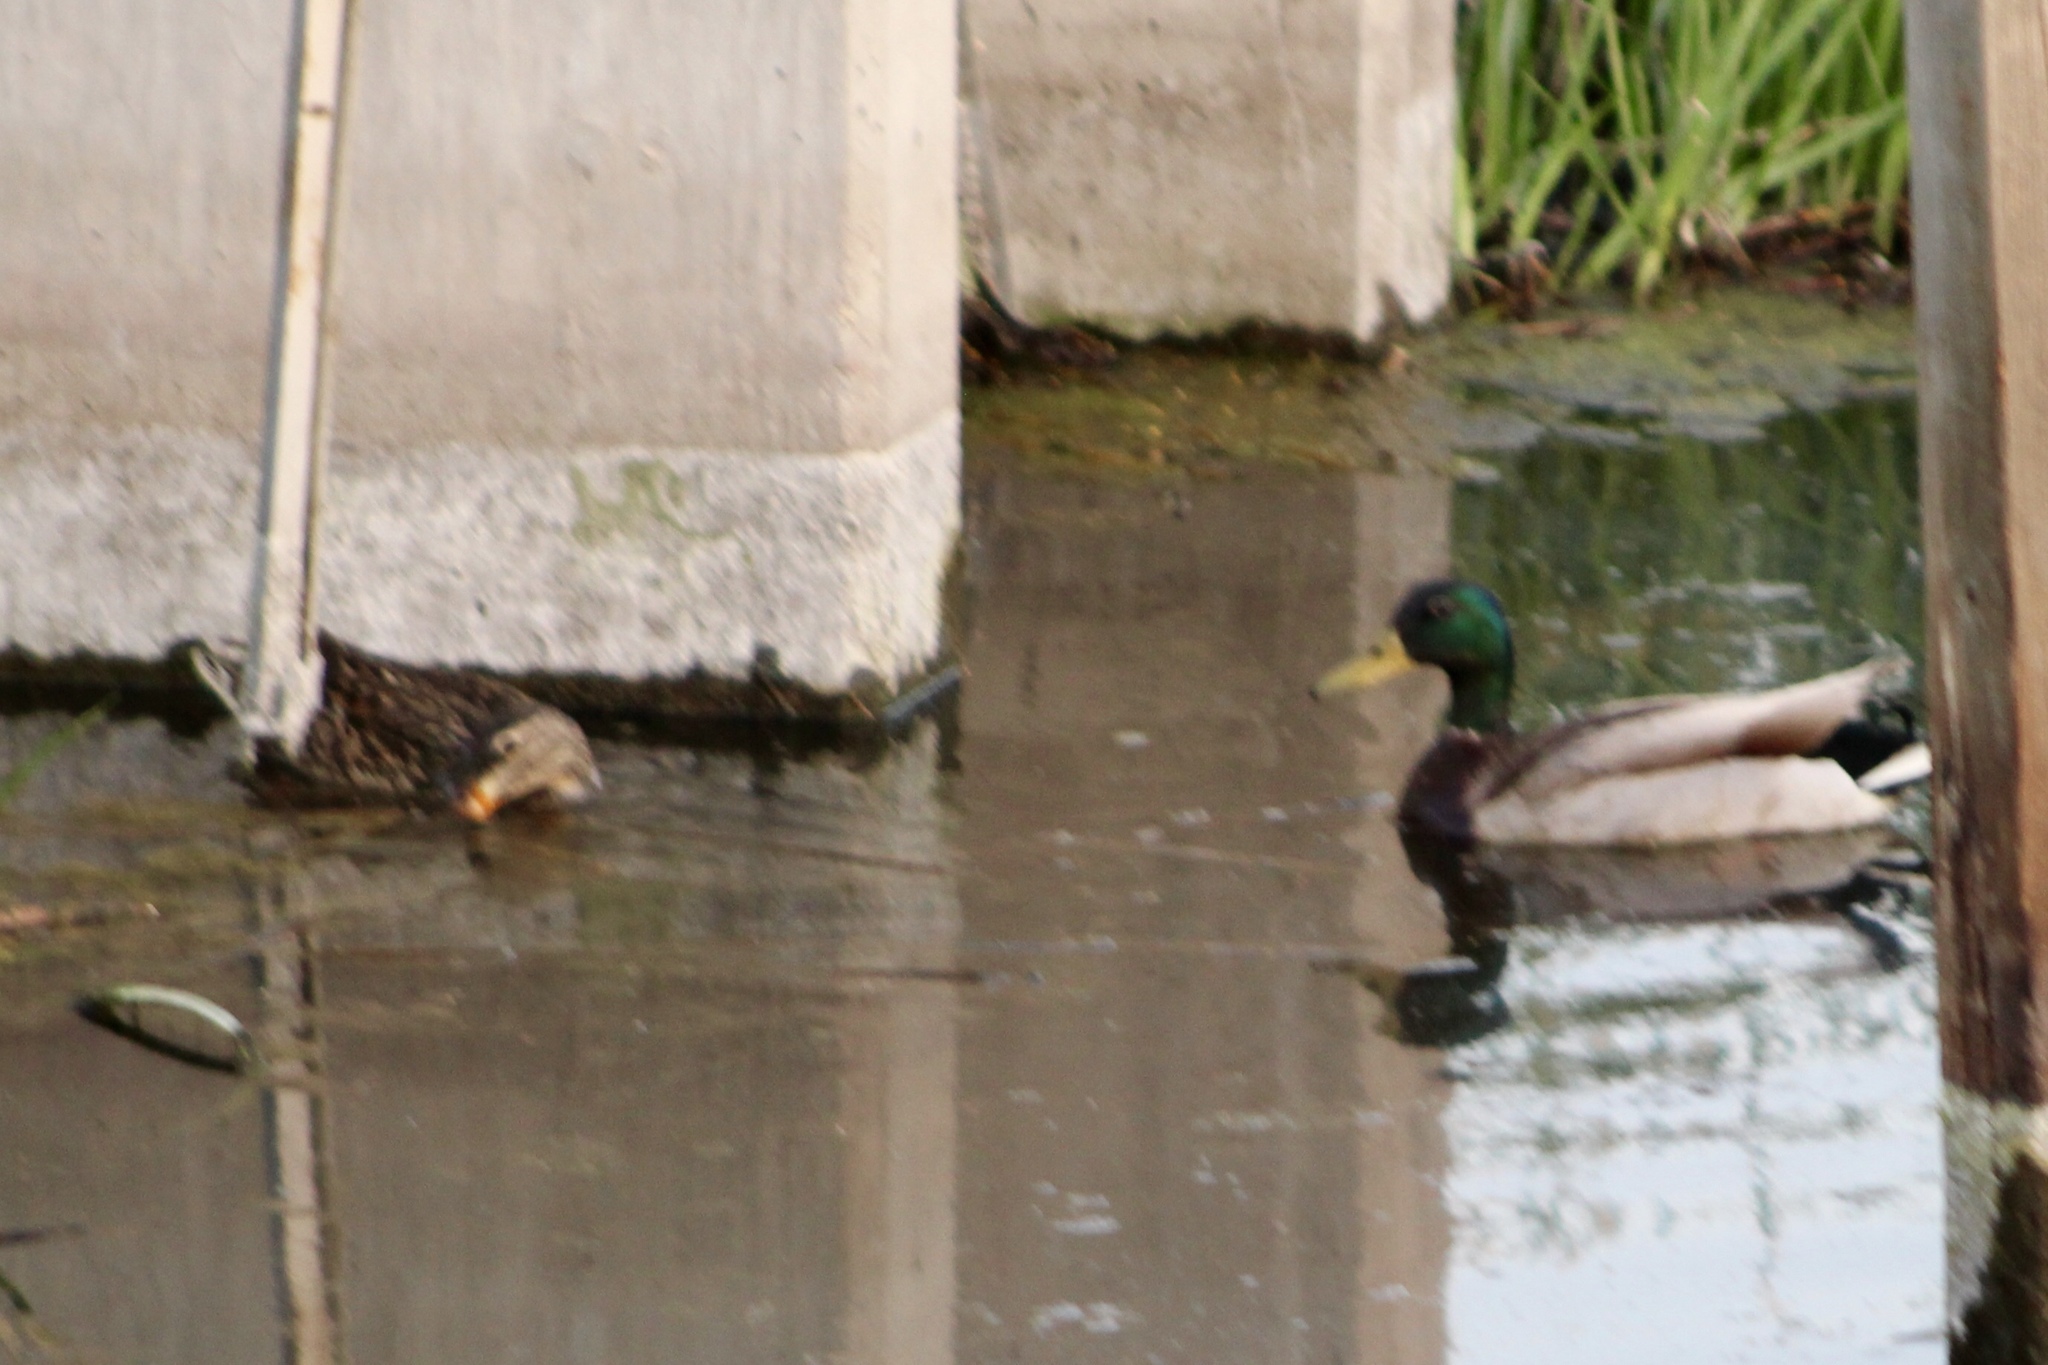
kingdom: Animalia
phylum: Chordata
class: Aves
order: Anseriformes
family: Anatidae
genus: Anas
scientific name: Anas platyrhynchos
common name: Mallard
